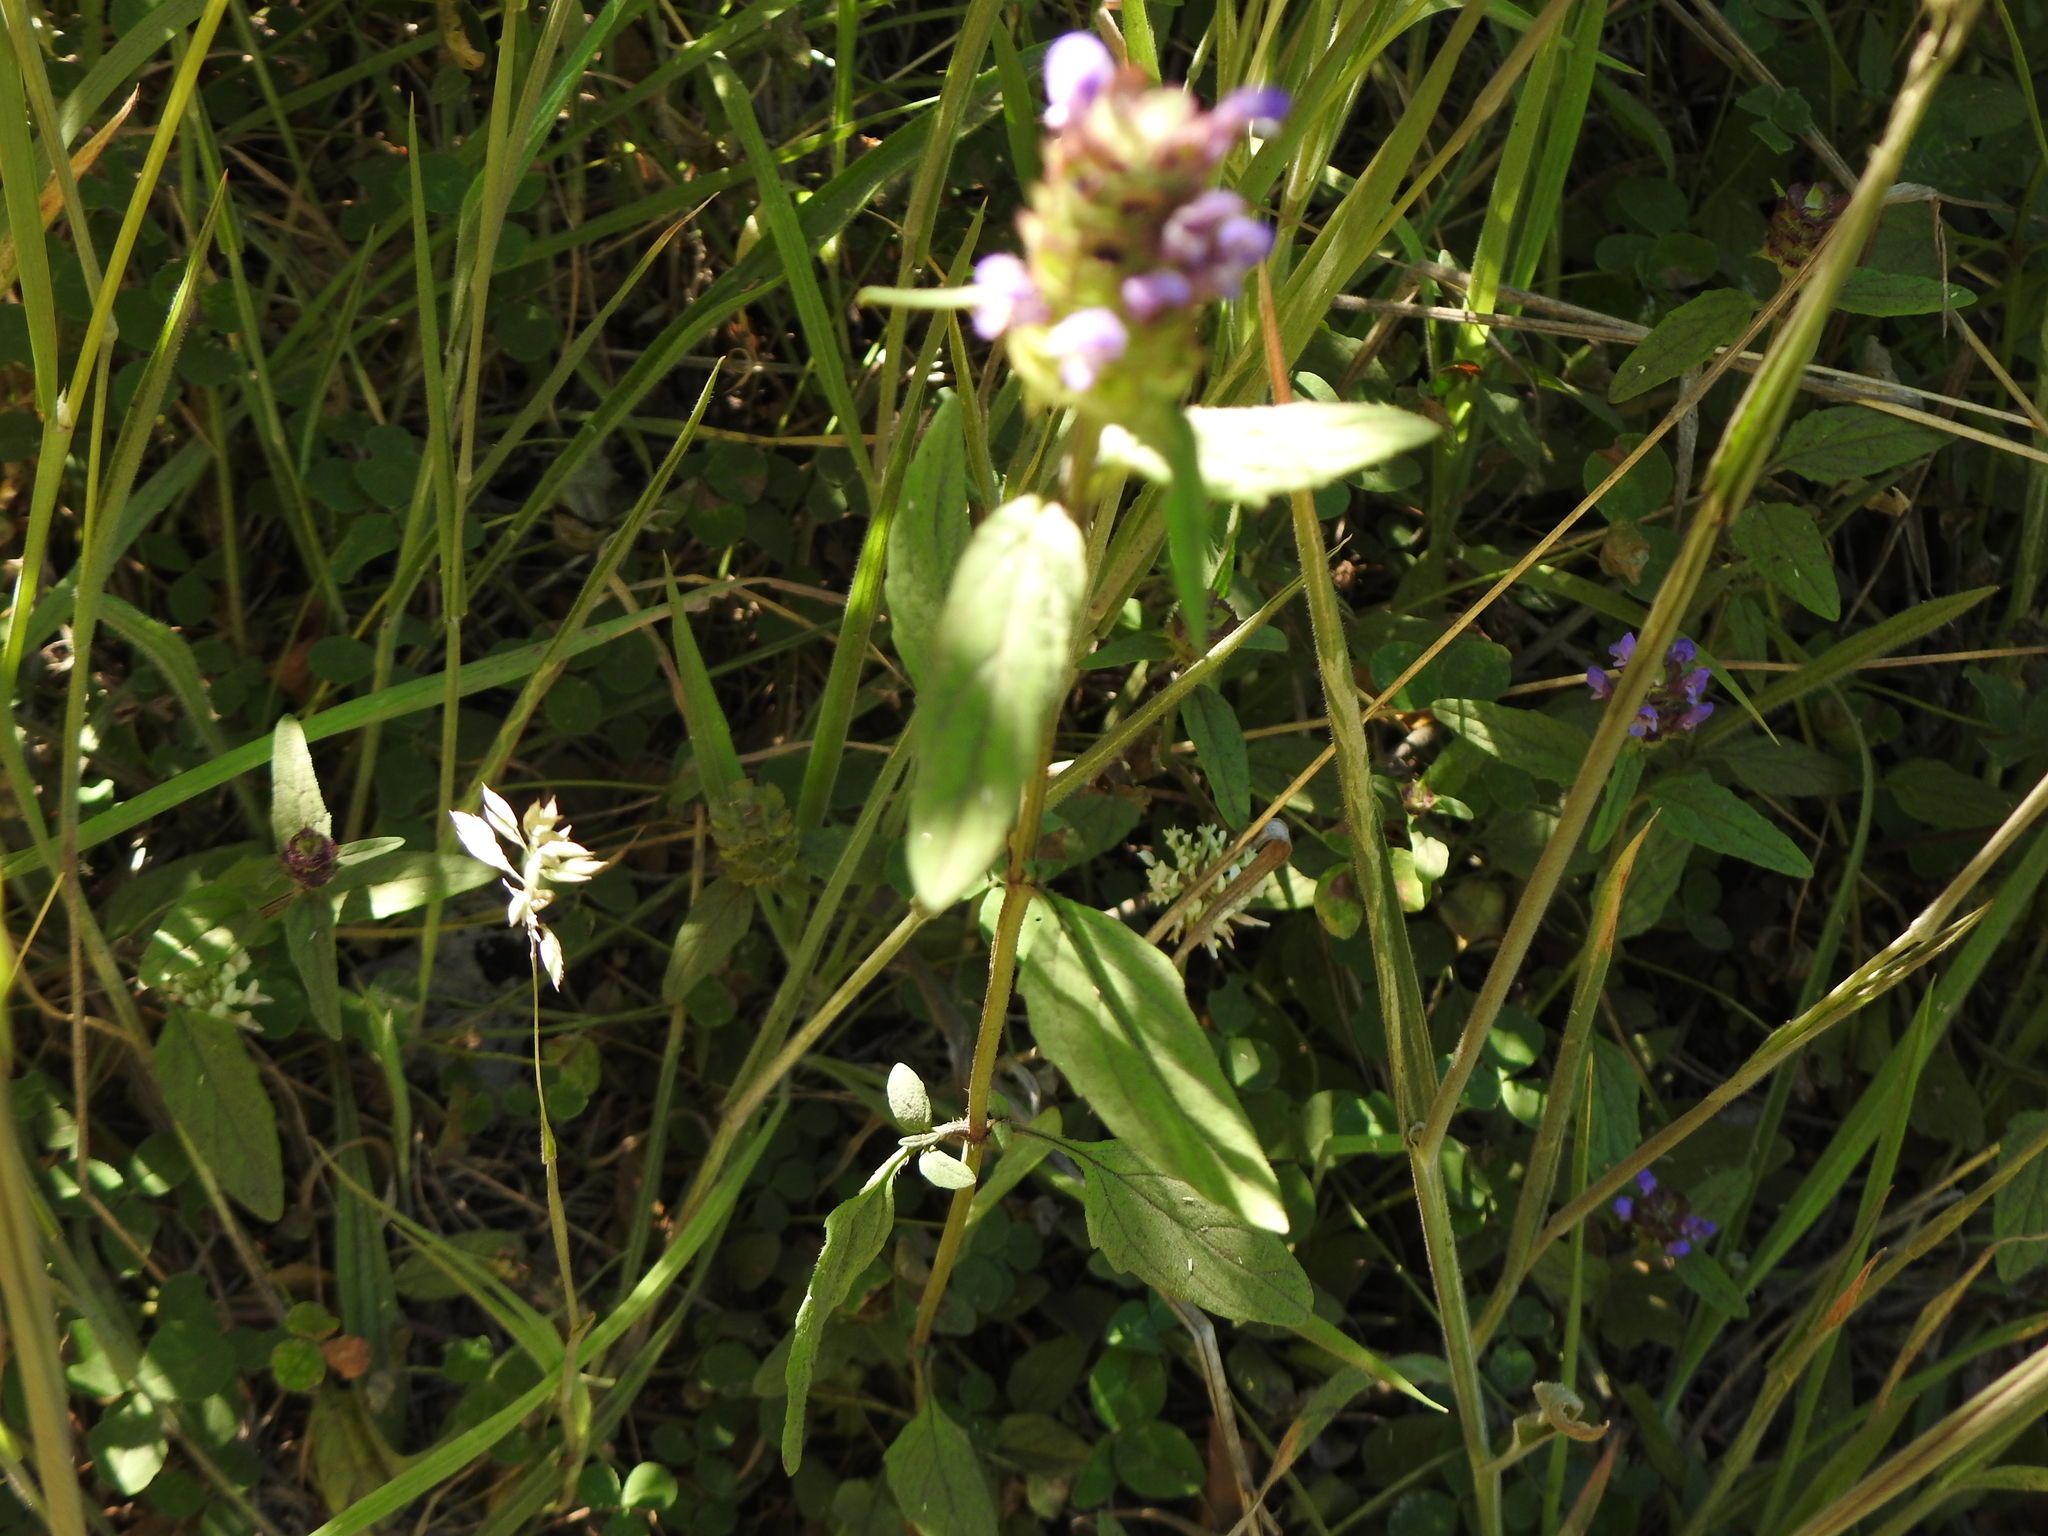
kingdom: Plantae
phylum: Tracheophyta
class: Magnoliopsida
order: Lamiales
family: Lamiaceae
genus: Prunella
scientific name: Prunella vulgaris
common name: Heal-all
